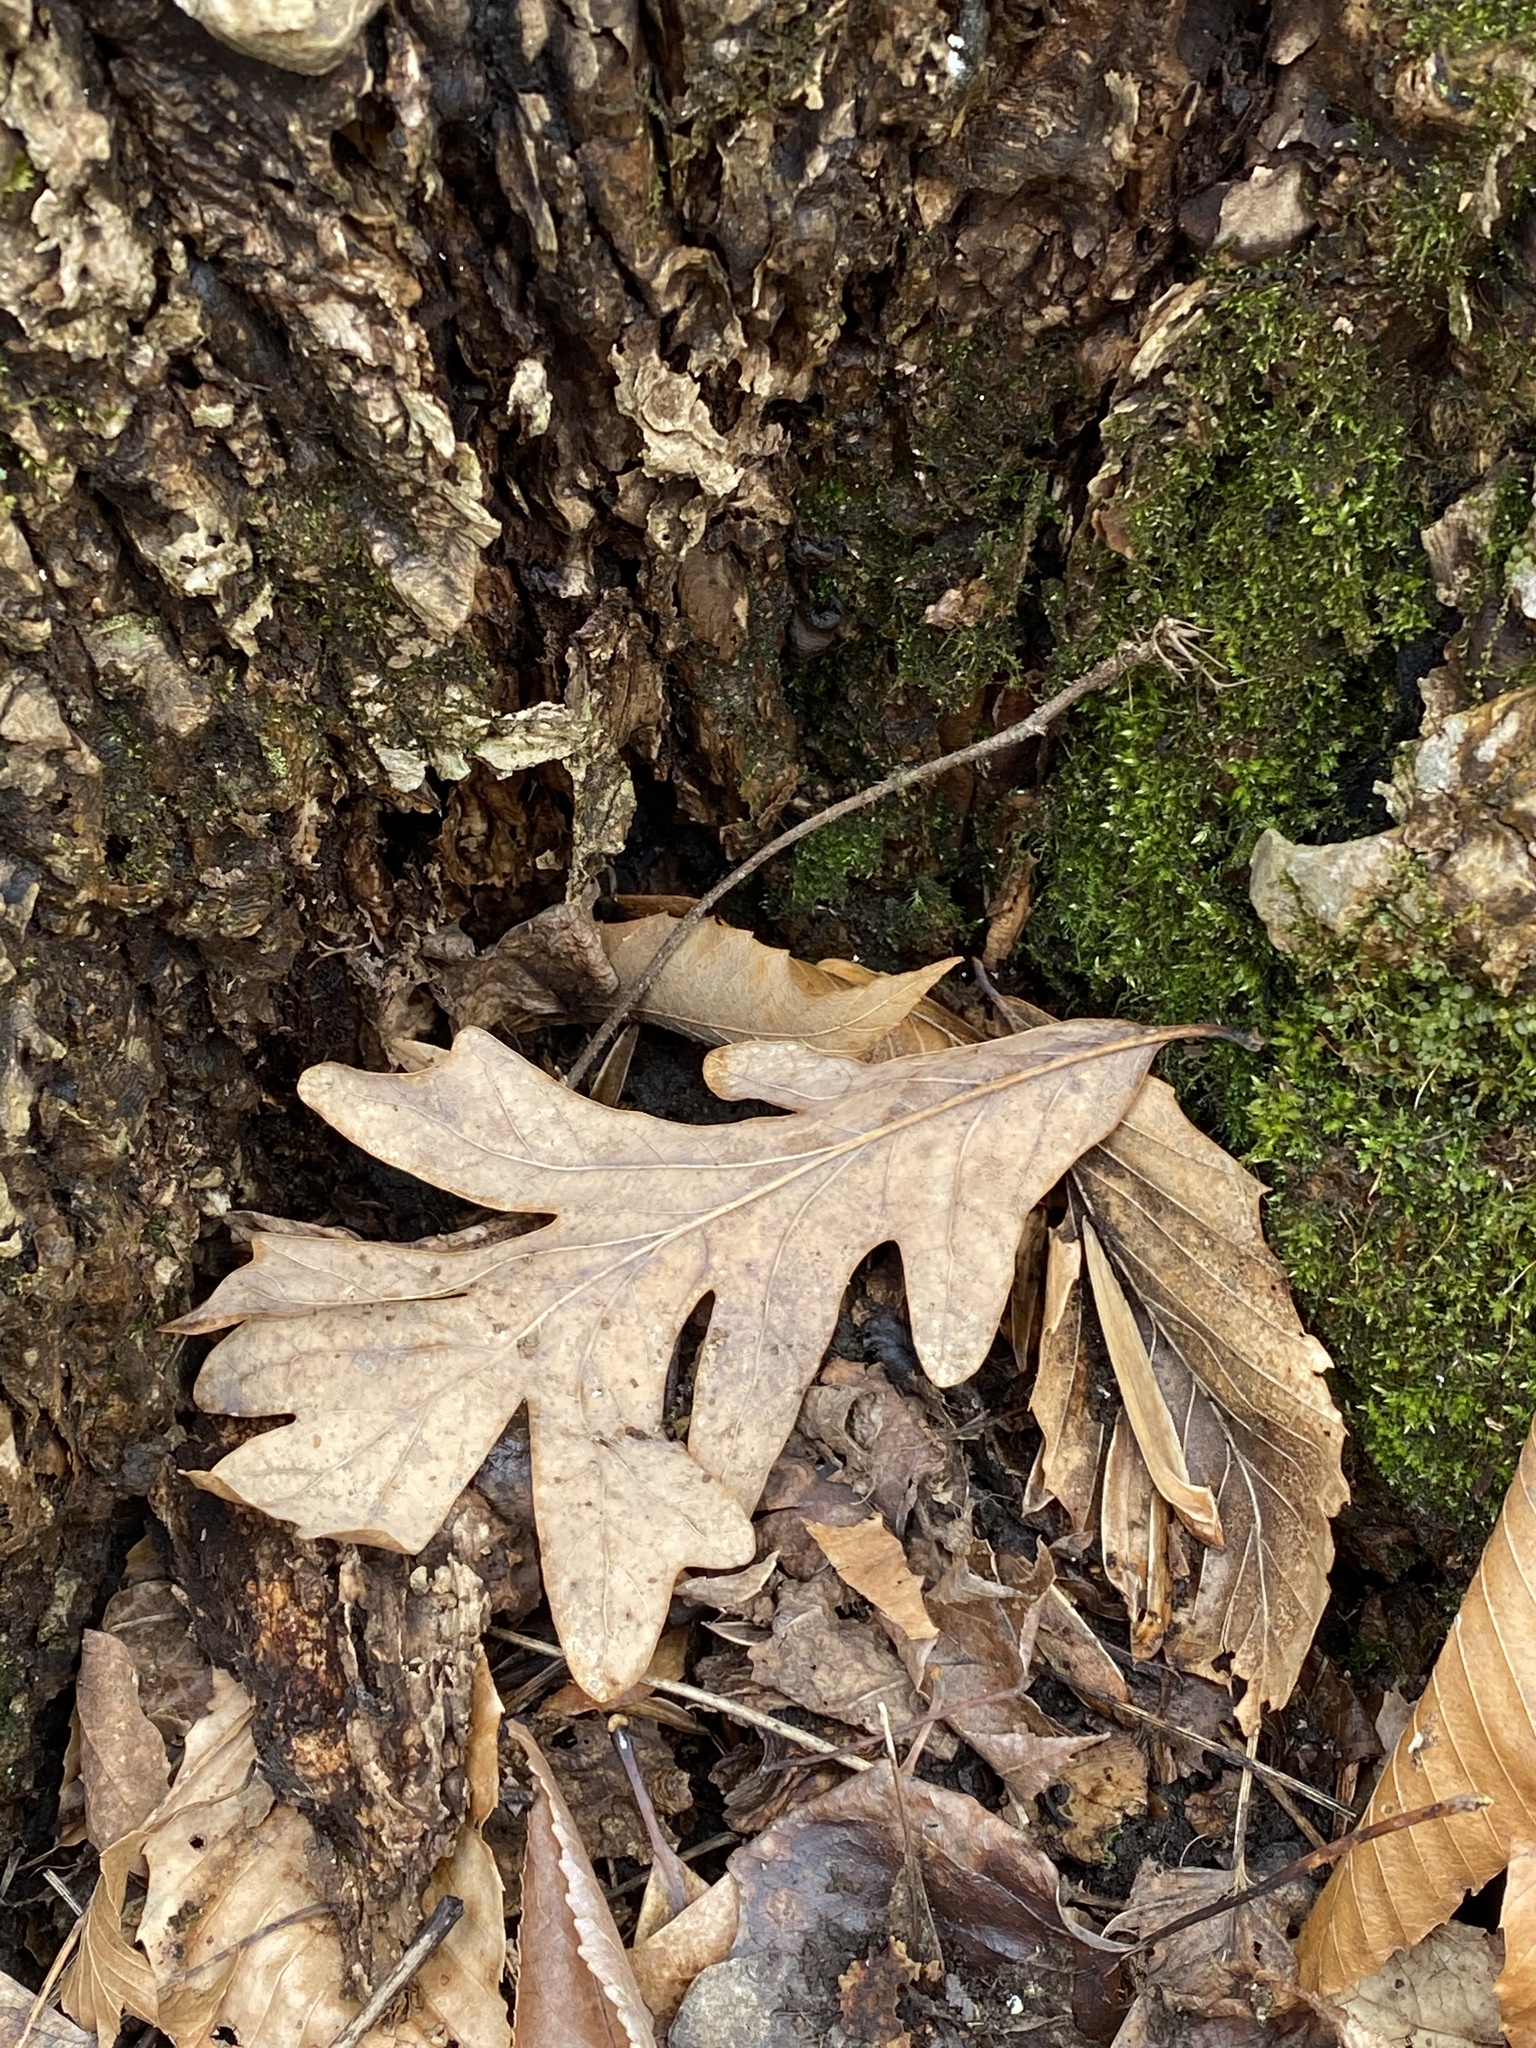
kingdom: Plantae
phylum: Tracheophyta
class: Magnoliopsida
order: Fagales
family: Fagaceae
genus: Quercus
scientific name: Quercus alba
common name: White oak
